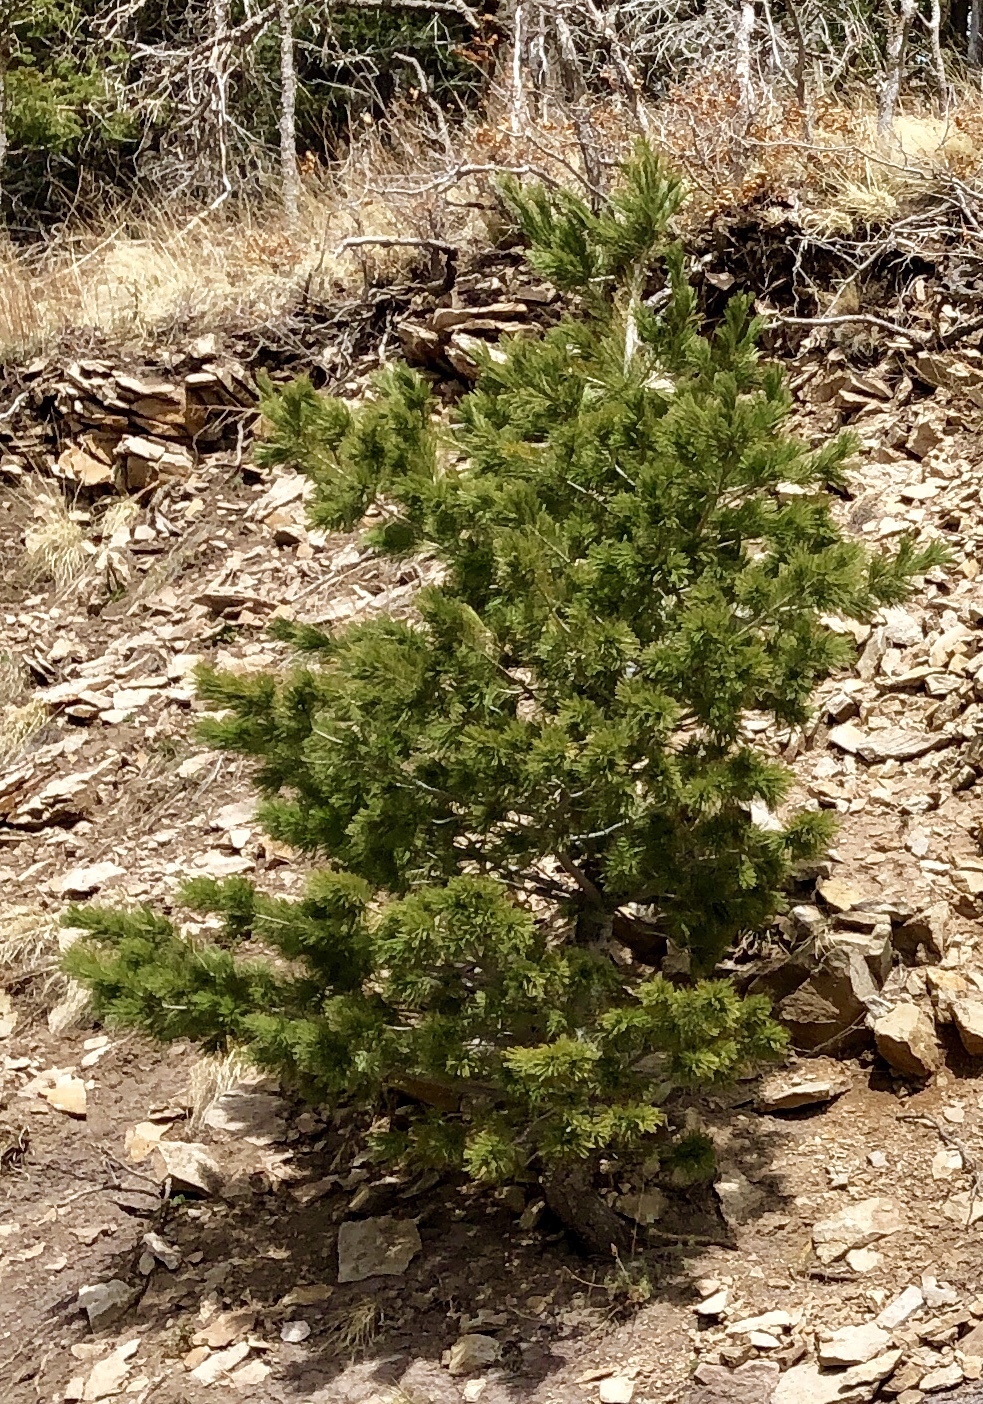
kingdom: Plantae
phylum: Tracheophyta
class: Pinopsida
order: Pinales
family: Pinaceae
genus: Pinus
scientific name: Pinus strobiformis
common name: Southwestern white pine
